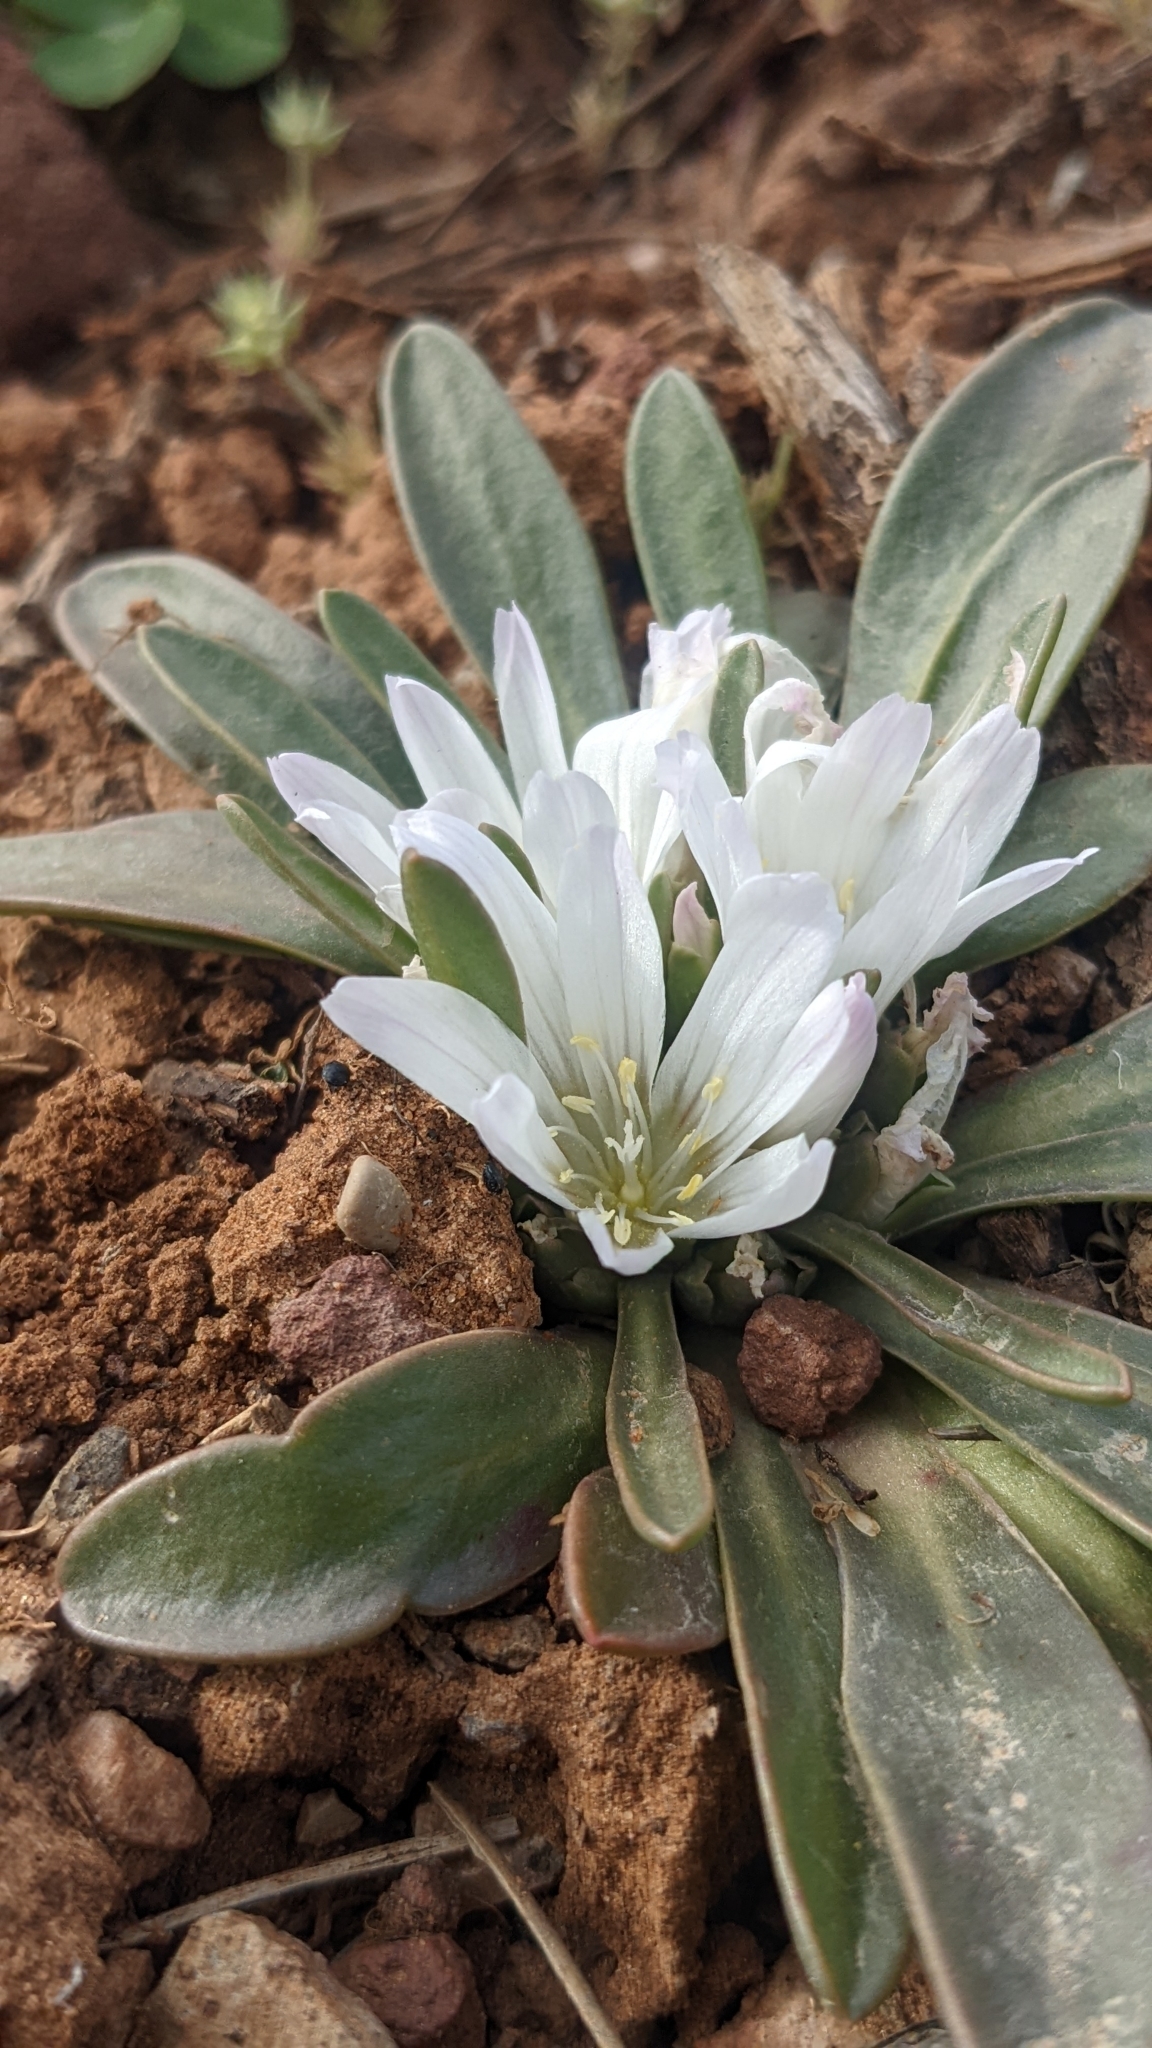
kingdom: Plantae
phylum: Tracheophyta
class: Magnoliopsida
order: Caryophyllales
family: Montiaceae
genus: Lewisia
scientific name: Lewisia brachycalyx
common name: Short-sepal lewisia
